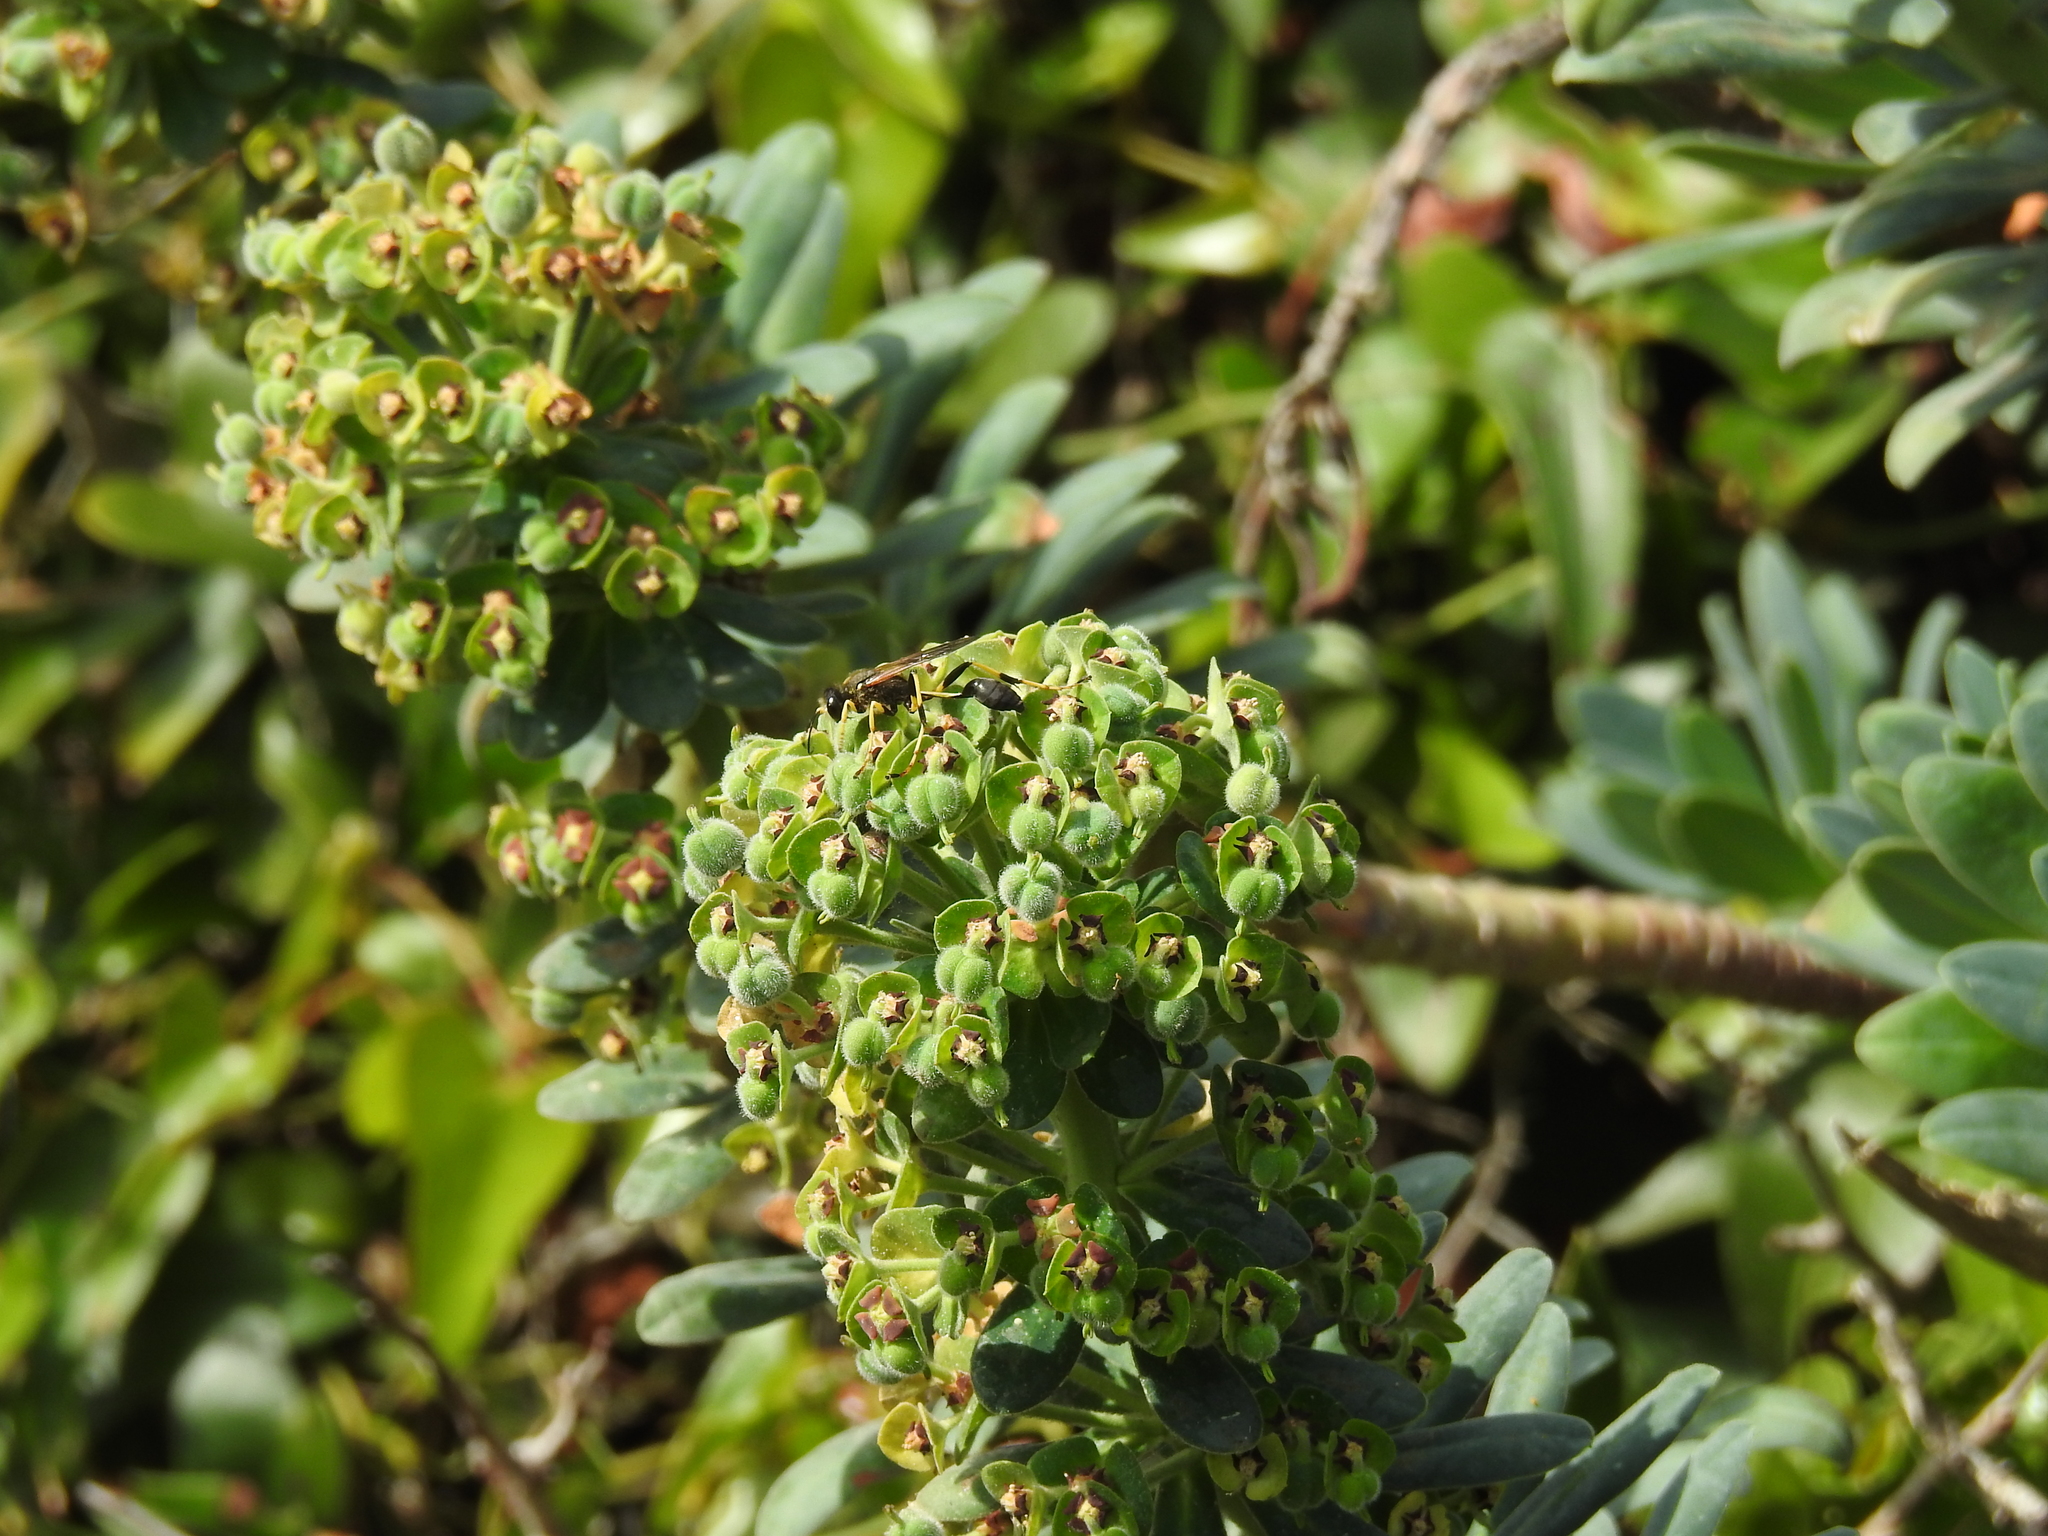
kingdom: Plantae
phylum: Tracheophyta
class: Magnoliopsida
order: Malpighiales
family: Euphorbiaceae
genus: Euphorbia
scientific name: Euphorbia characias
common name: Mediterranean spurge
